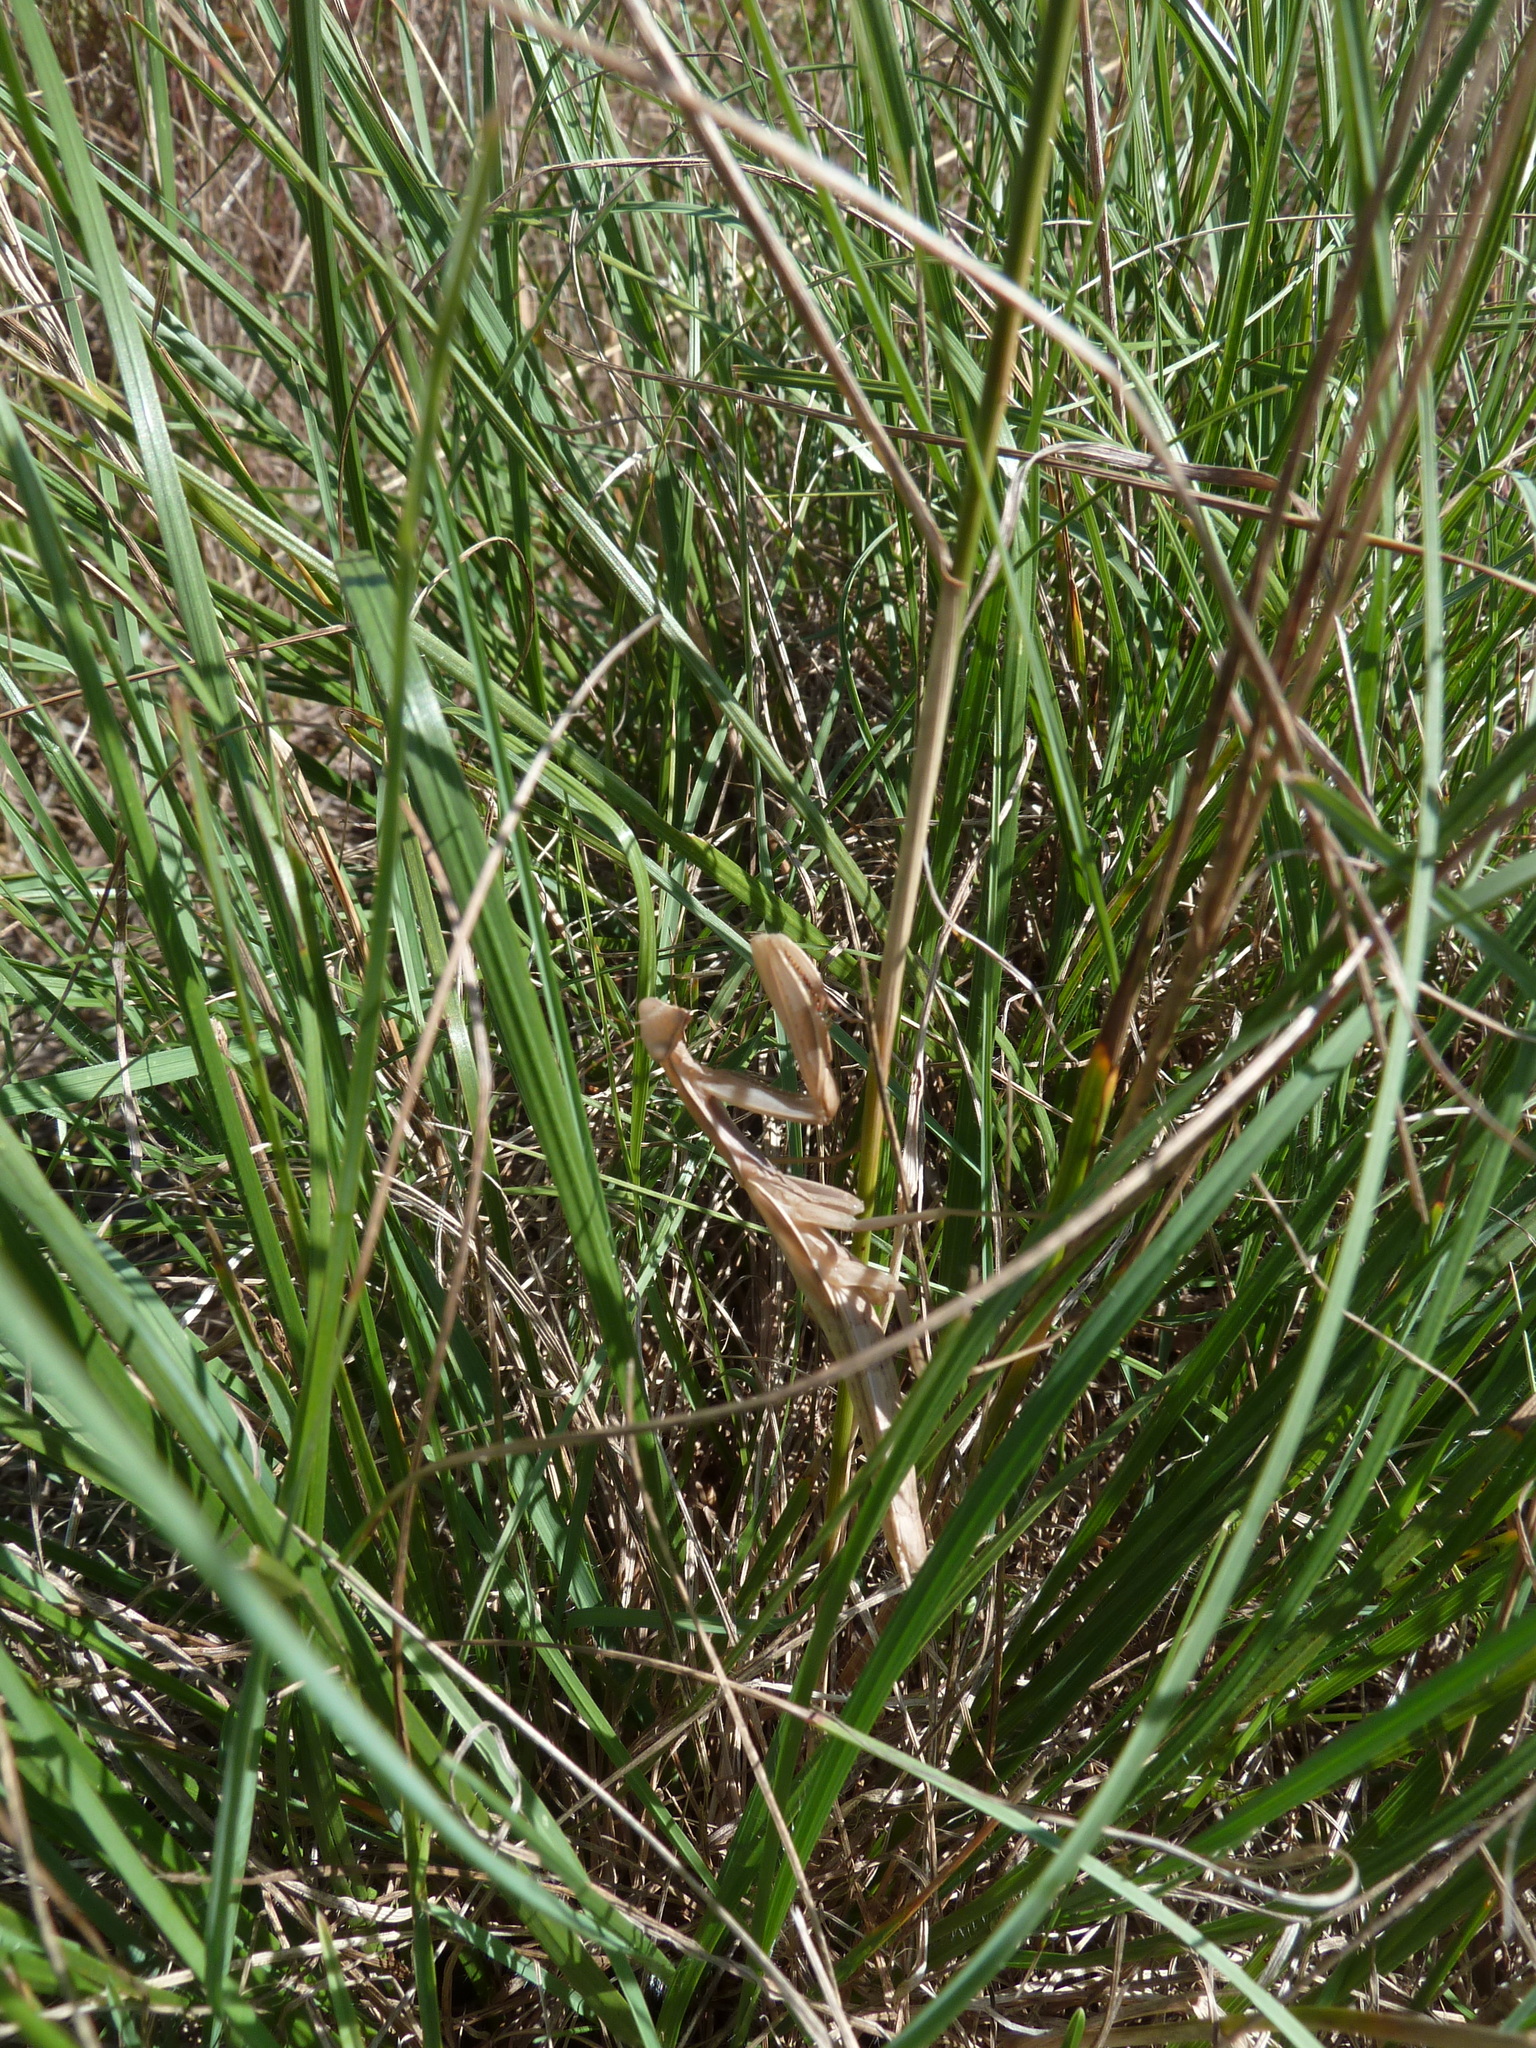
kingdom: Animalia
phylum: Arthropoda
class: Insecta
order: Mantodea
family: Mantidae
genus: Mantis
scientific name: Mantis religiosa
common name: Praying mantis
